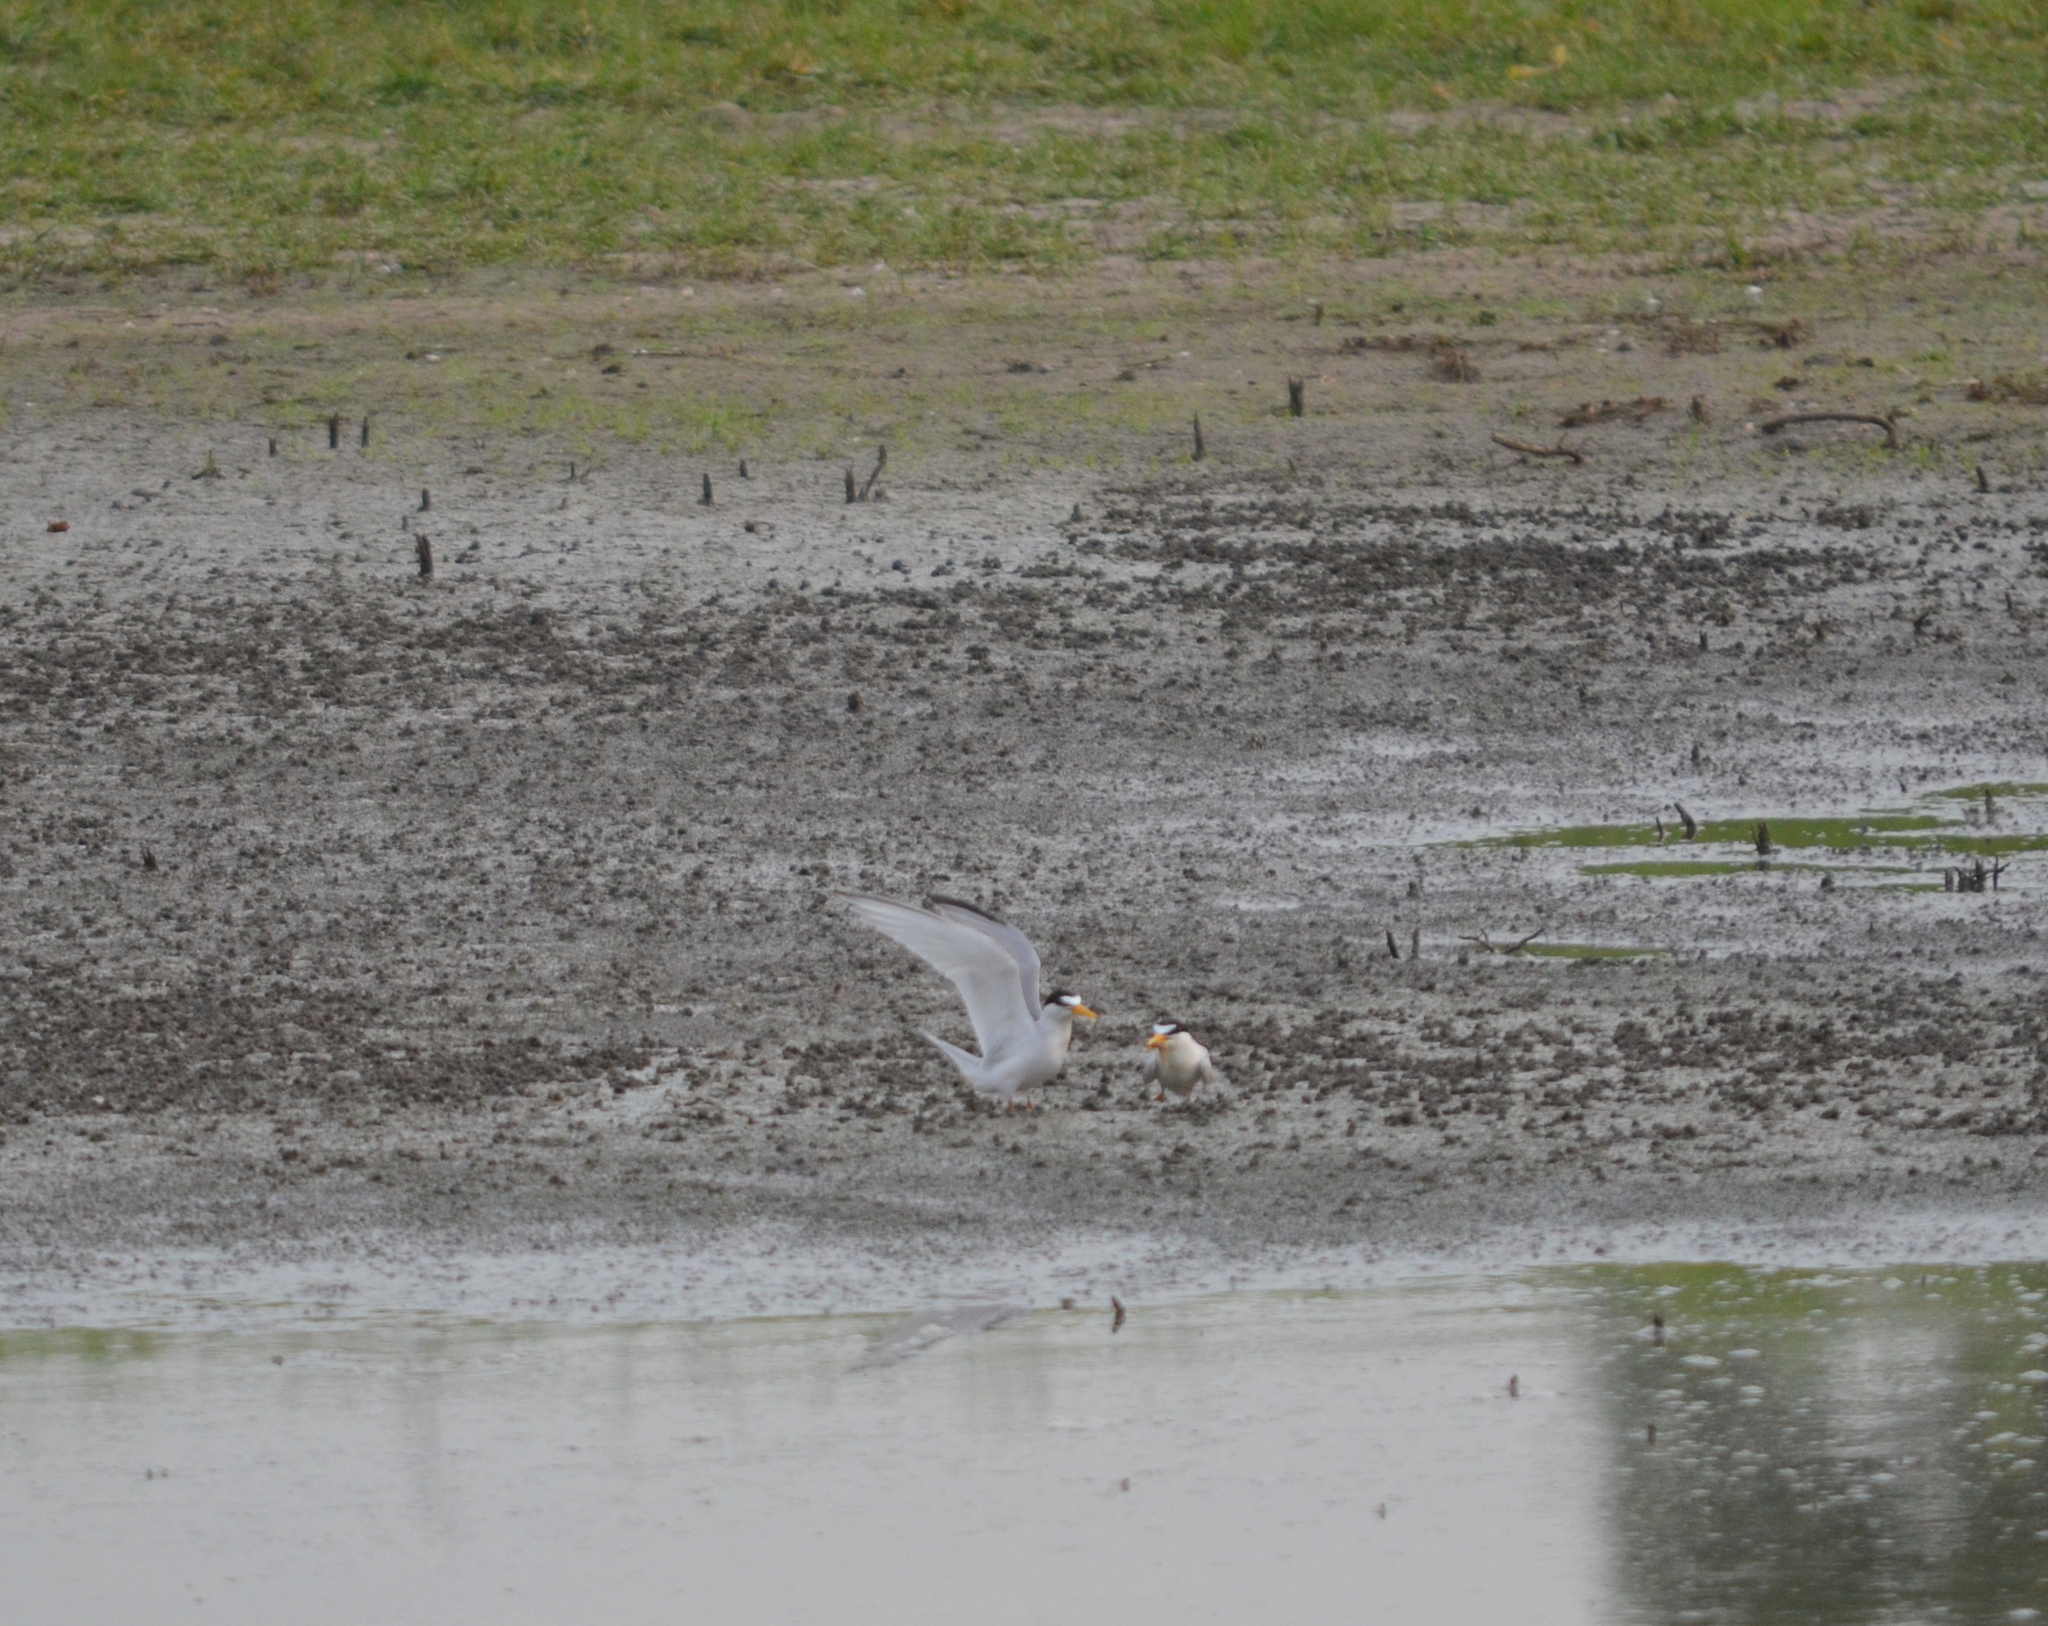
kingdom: Animalia
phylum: Chordata
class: Aves
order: Charadriiformes
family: Laridae
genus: Sternula
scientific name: Sternula antillarum
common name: Least tern
